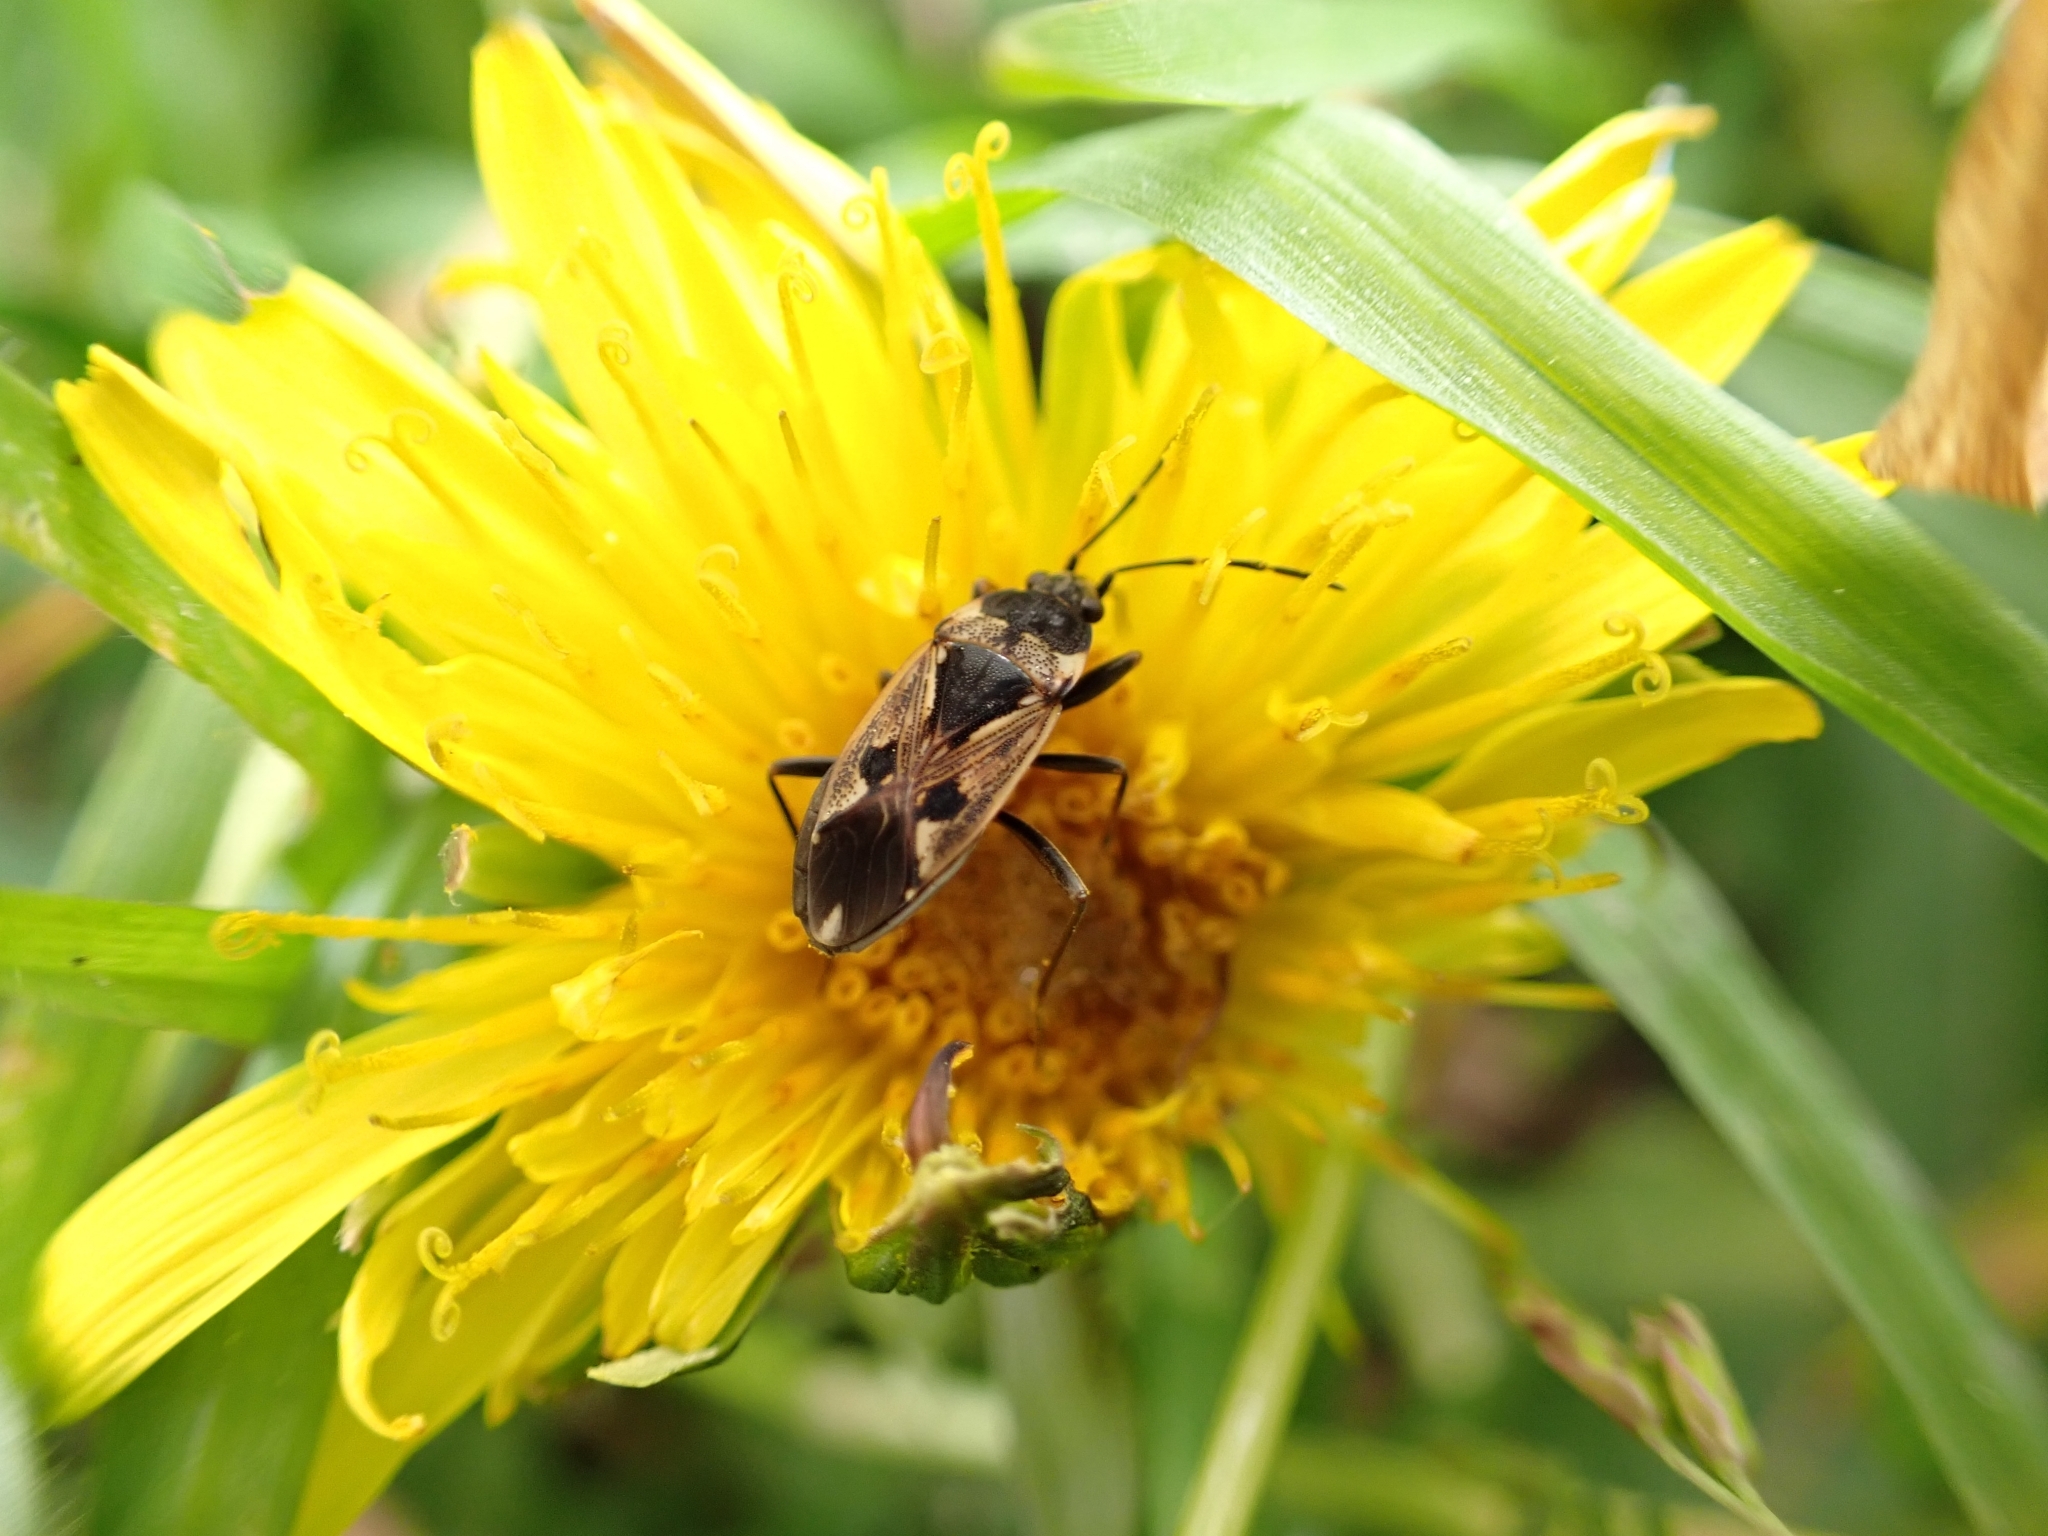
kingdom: Animalia
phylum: Arthropoda
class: Insecta
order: Hemiptera
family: Rhyparochromidae
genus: Rhyparochromus
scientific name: Rhyparochromus vulgaris
